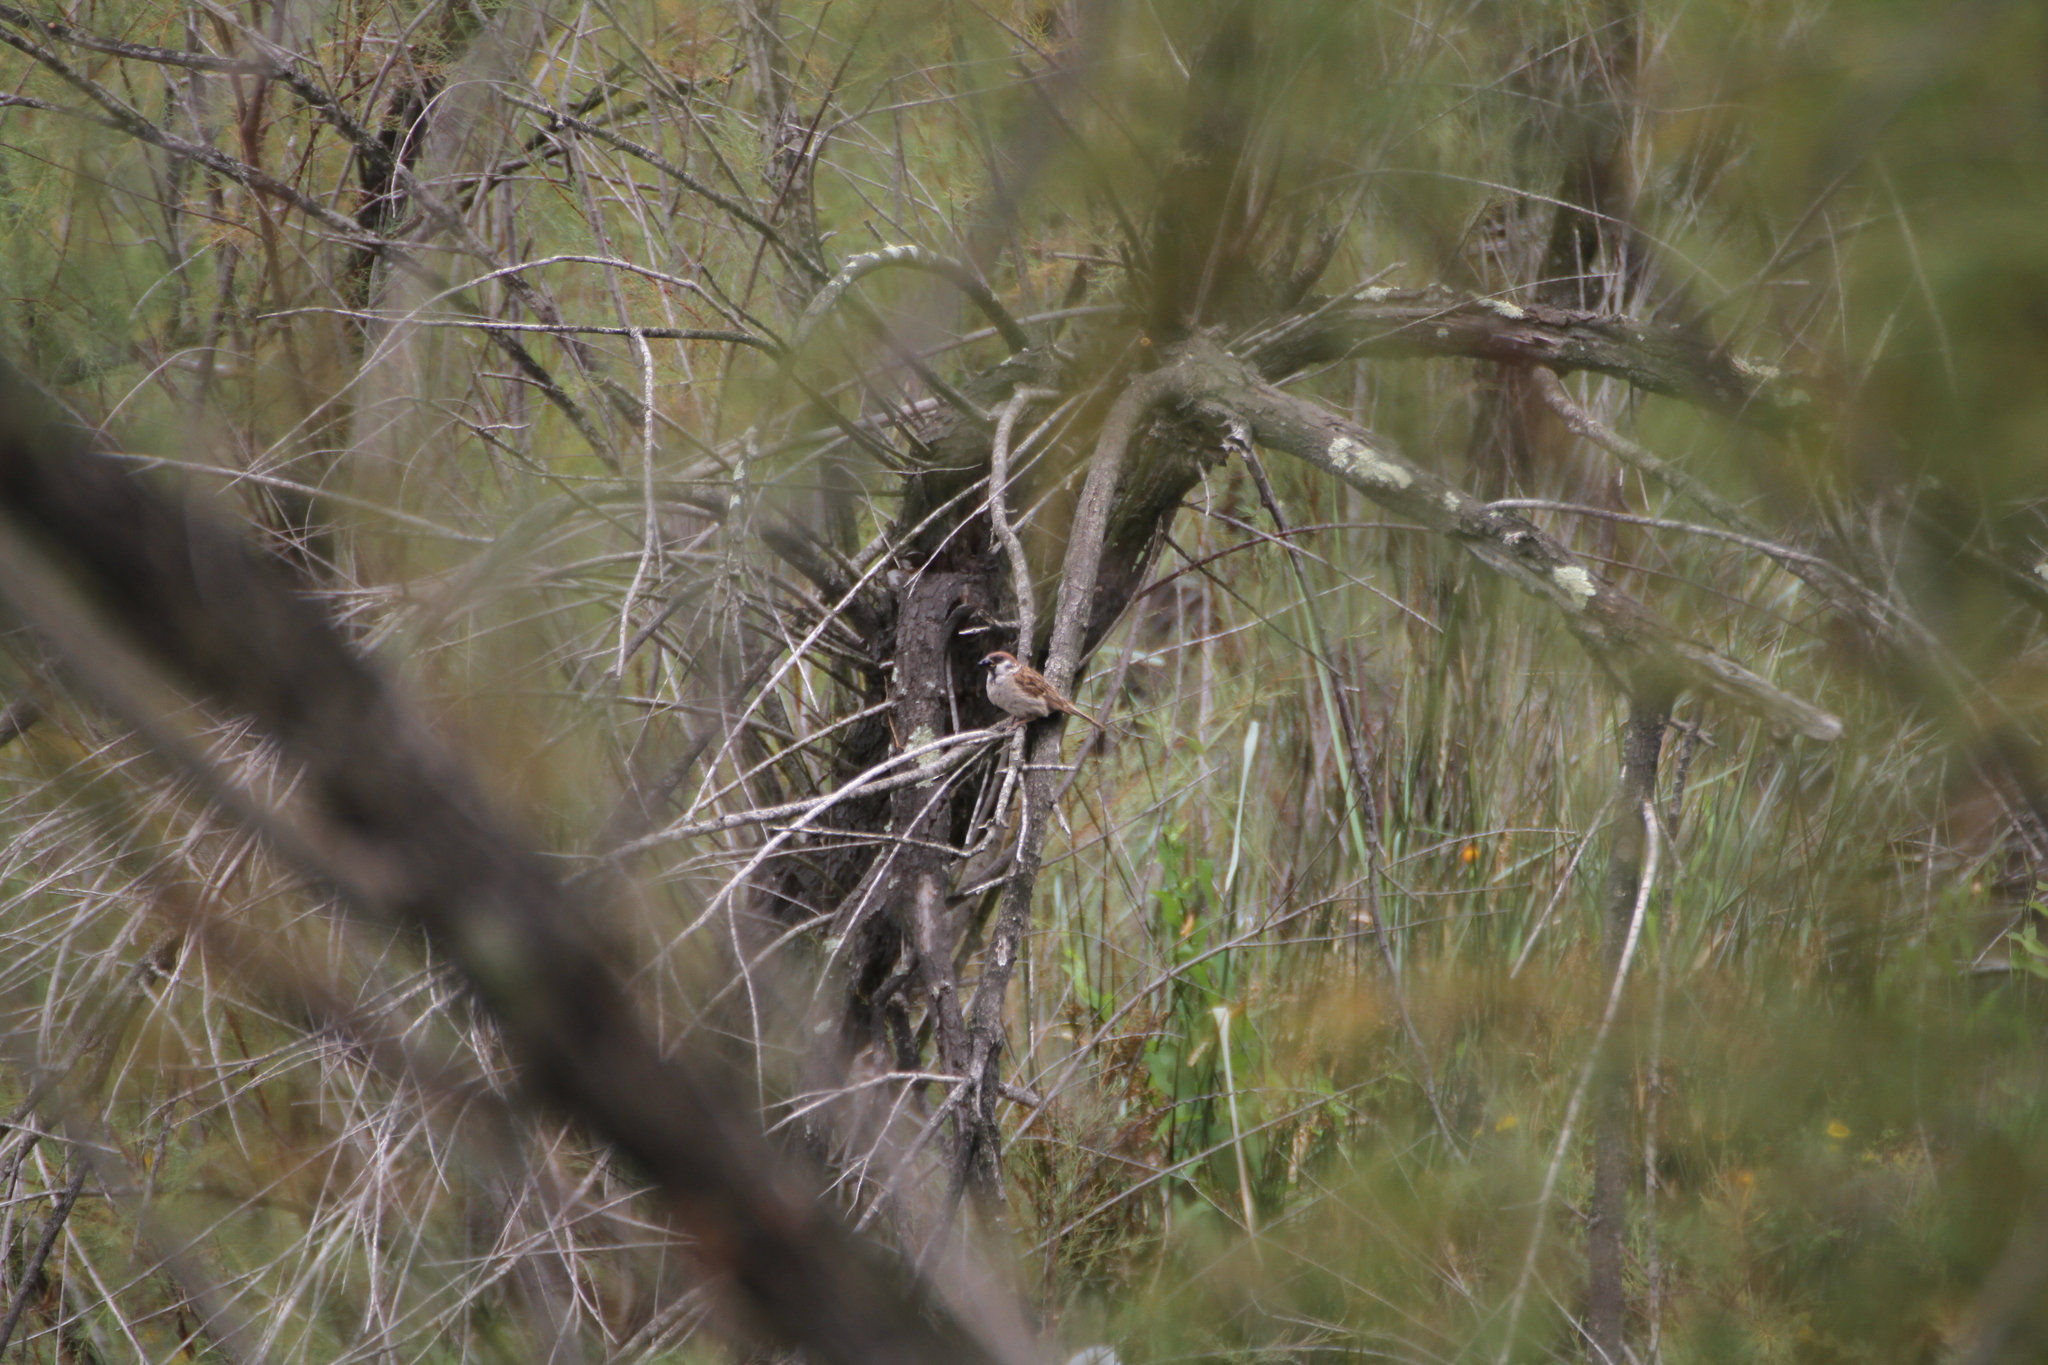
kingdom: Animalia
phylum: Chordata
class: Aves
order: Passeriformes
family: Passeridae
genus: Passer
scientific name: Passer montanus
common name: Eurasian tree sparrow
